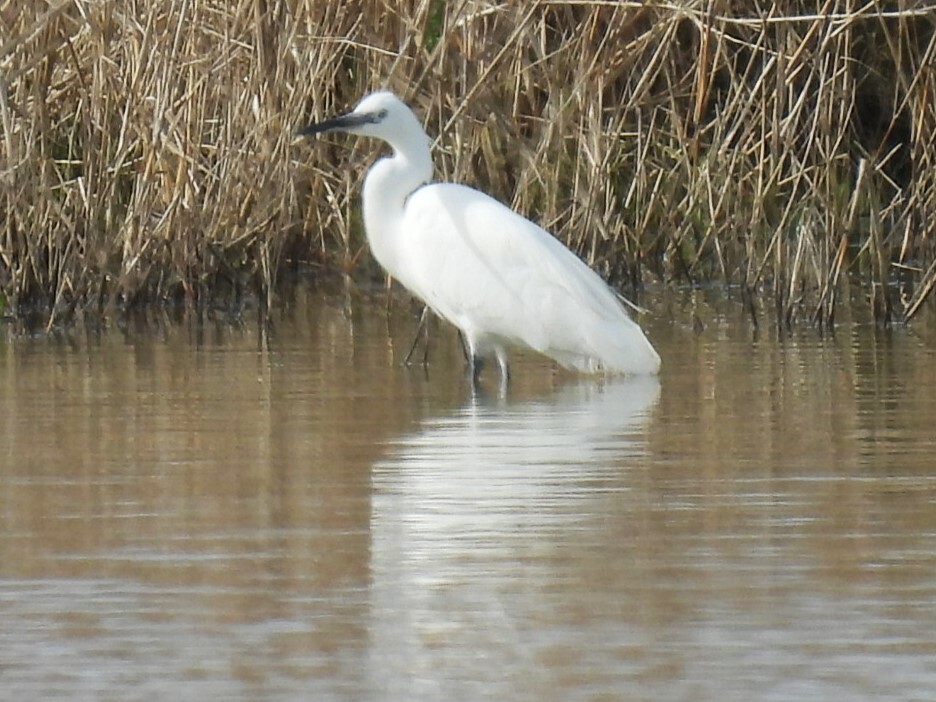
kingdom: Animalia
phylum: Chordata
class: Aves
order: Pelecaniformes
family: Ardeidae
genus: Egretta
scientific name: Egretta garzetta
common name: Little egret
